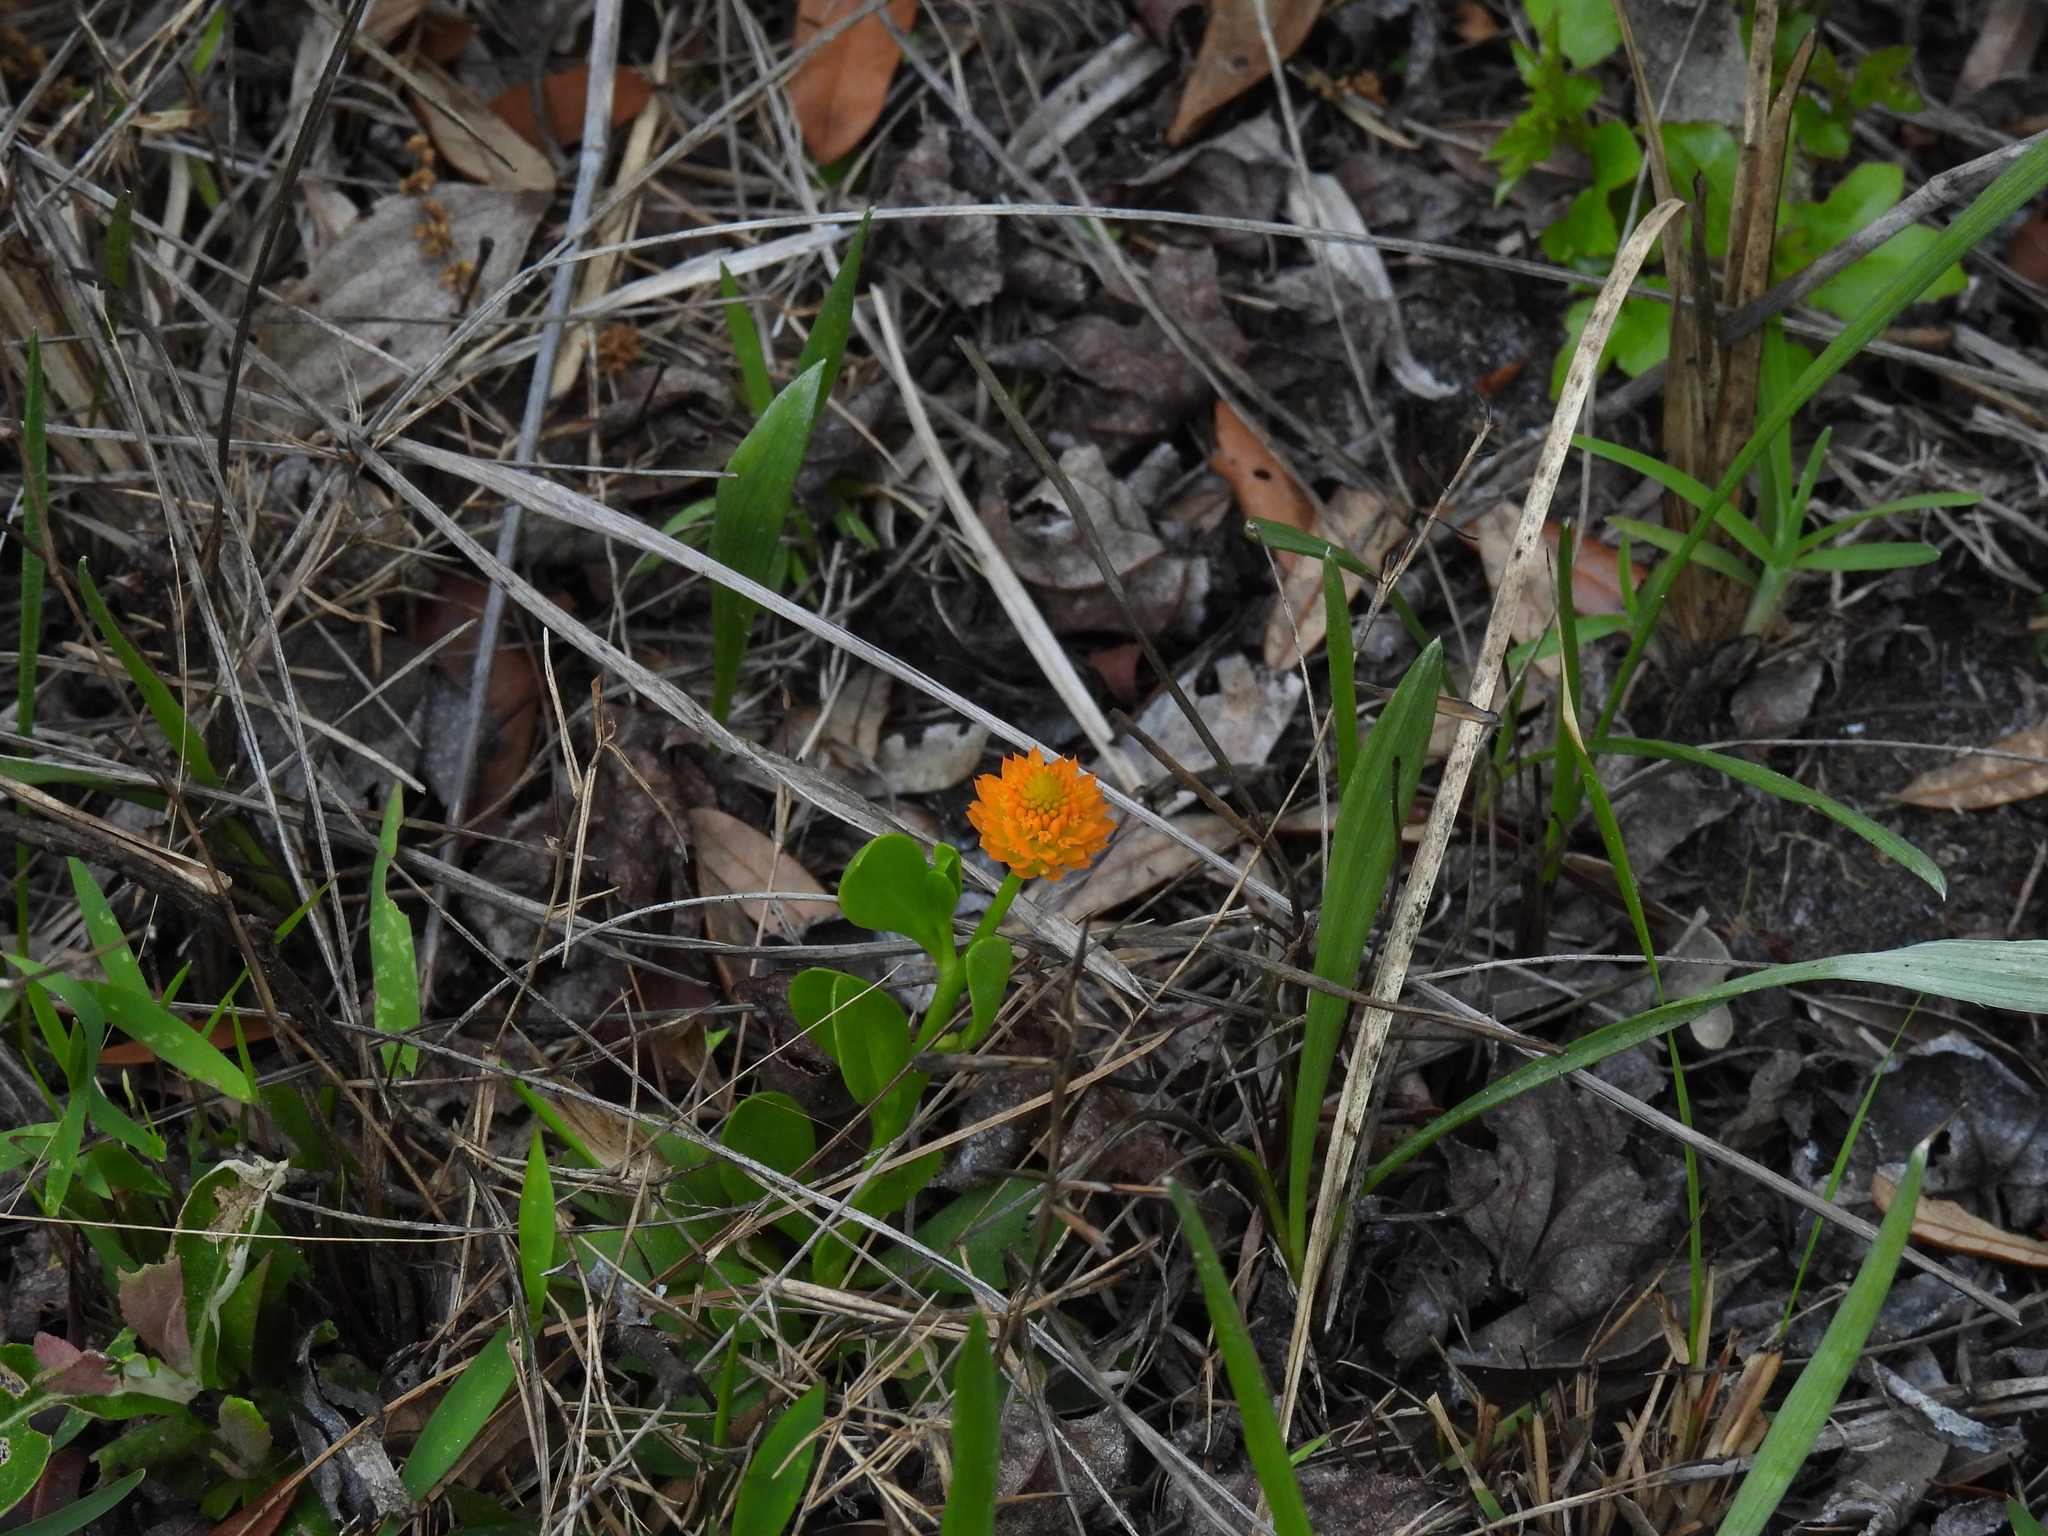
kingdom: Plantae
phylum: Tracheophyta
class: Magnoliopsida
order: Fabales
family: Polygalaceae
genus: Polygala
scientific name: Polygala lutea
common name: Orange milkwort
